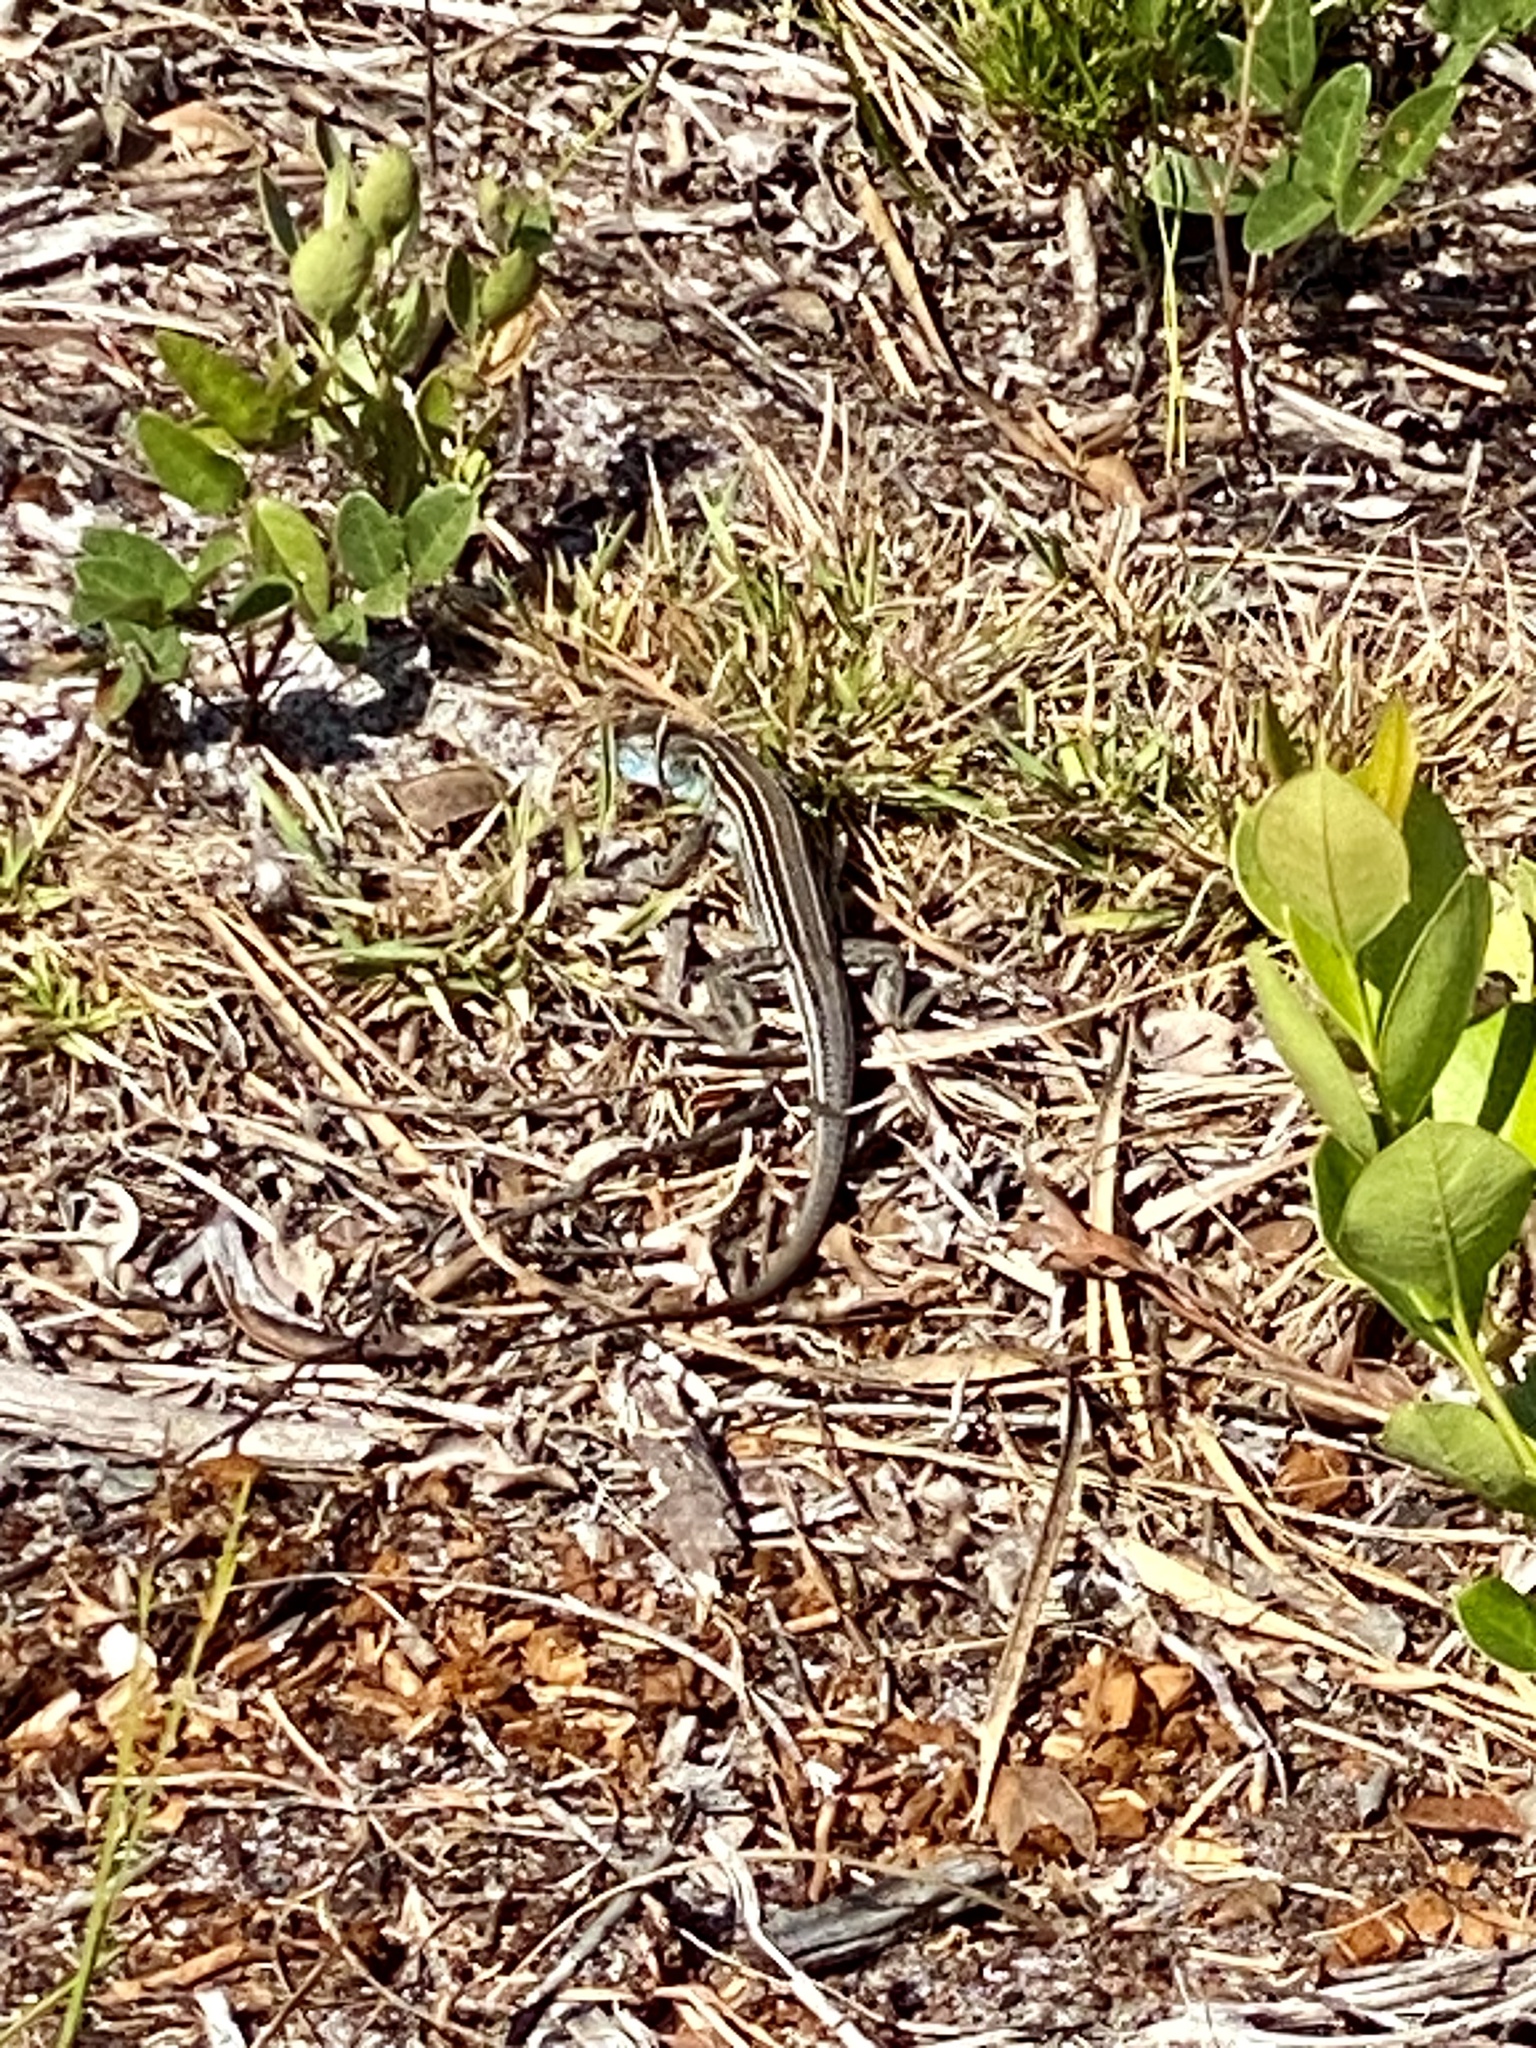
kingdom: Animalia
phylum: Chordata
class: Squamata
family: Teiidae
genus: Aspidoscelis
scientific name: Aspidoscelis sexlineatus
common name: Six-lined racerunner
